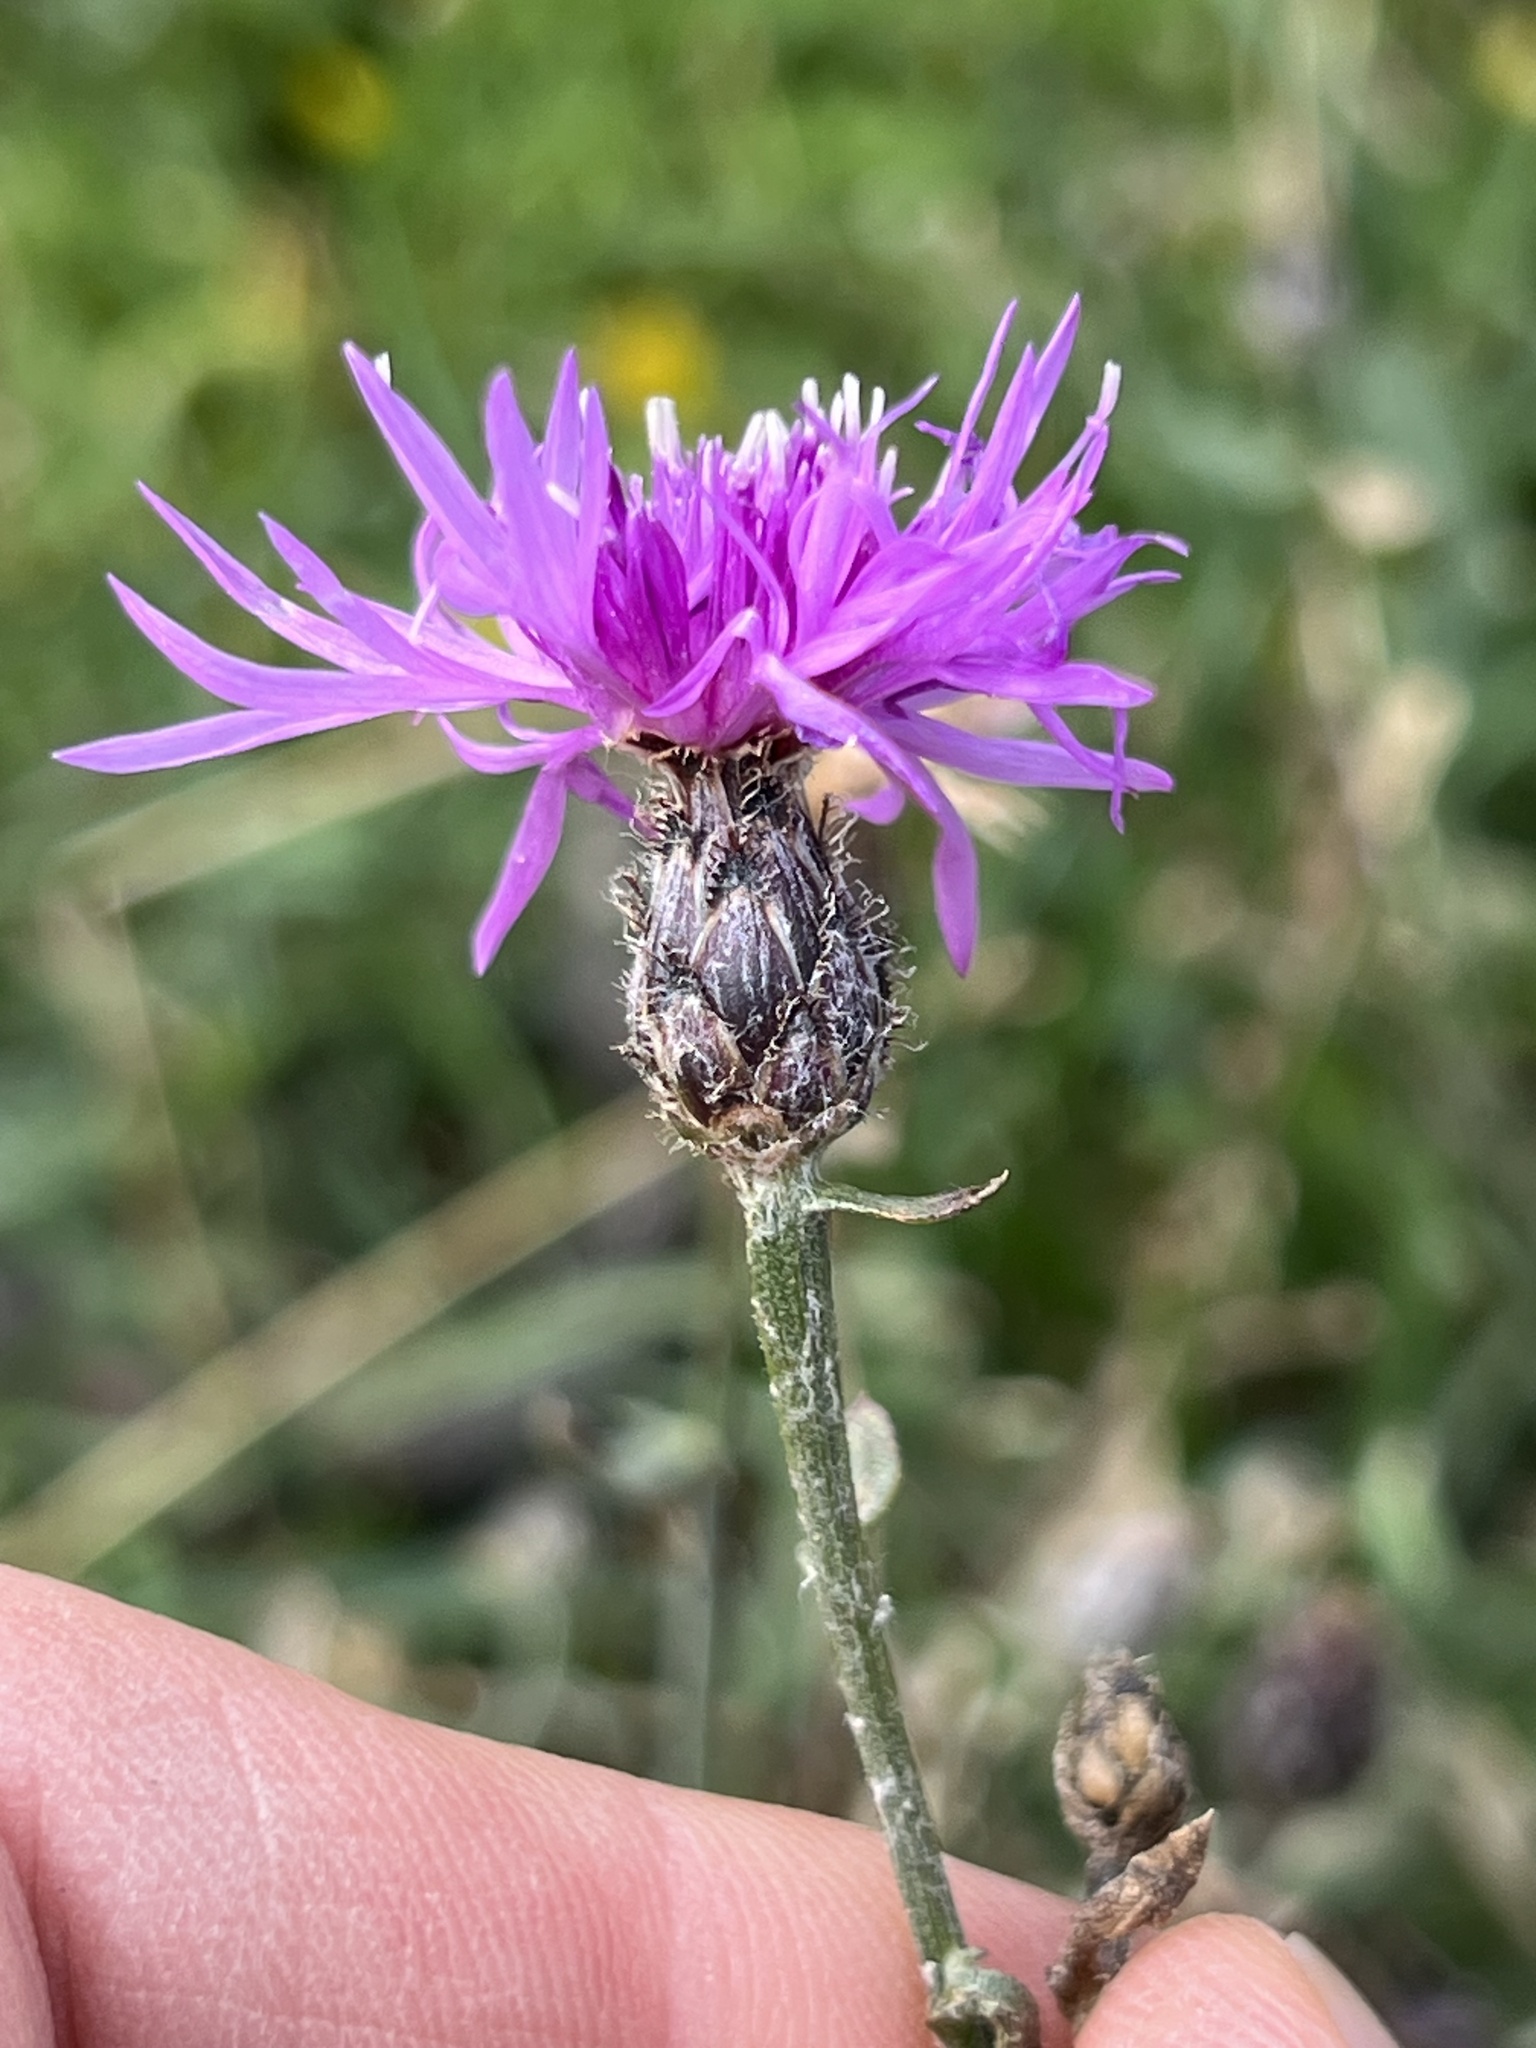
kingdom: Plantae
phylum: Tracheophyta
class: Magnoliopsida
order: Asterales
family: Asteraceae
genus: Centaurea
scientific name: Centaurea stoebe
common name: Spotted knapweed
